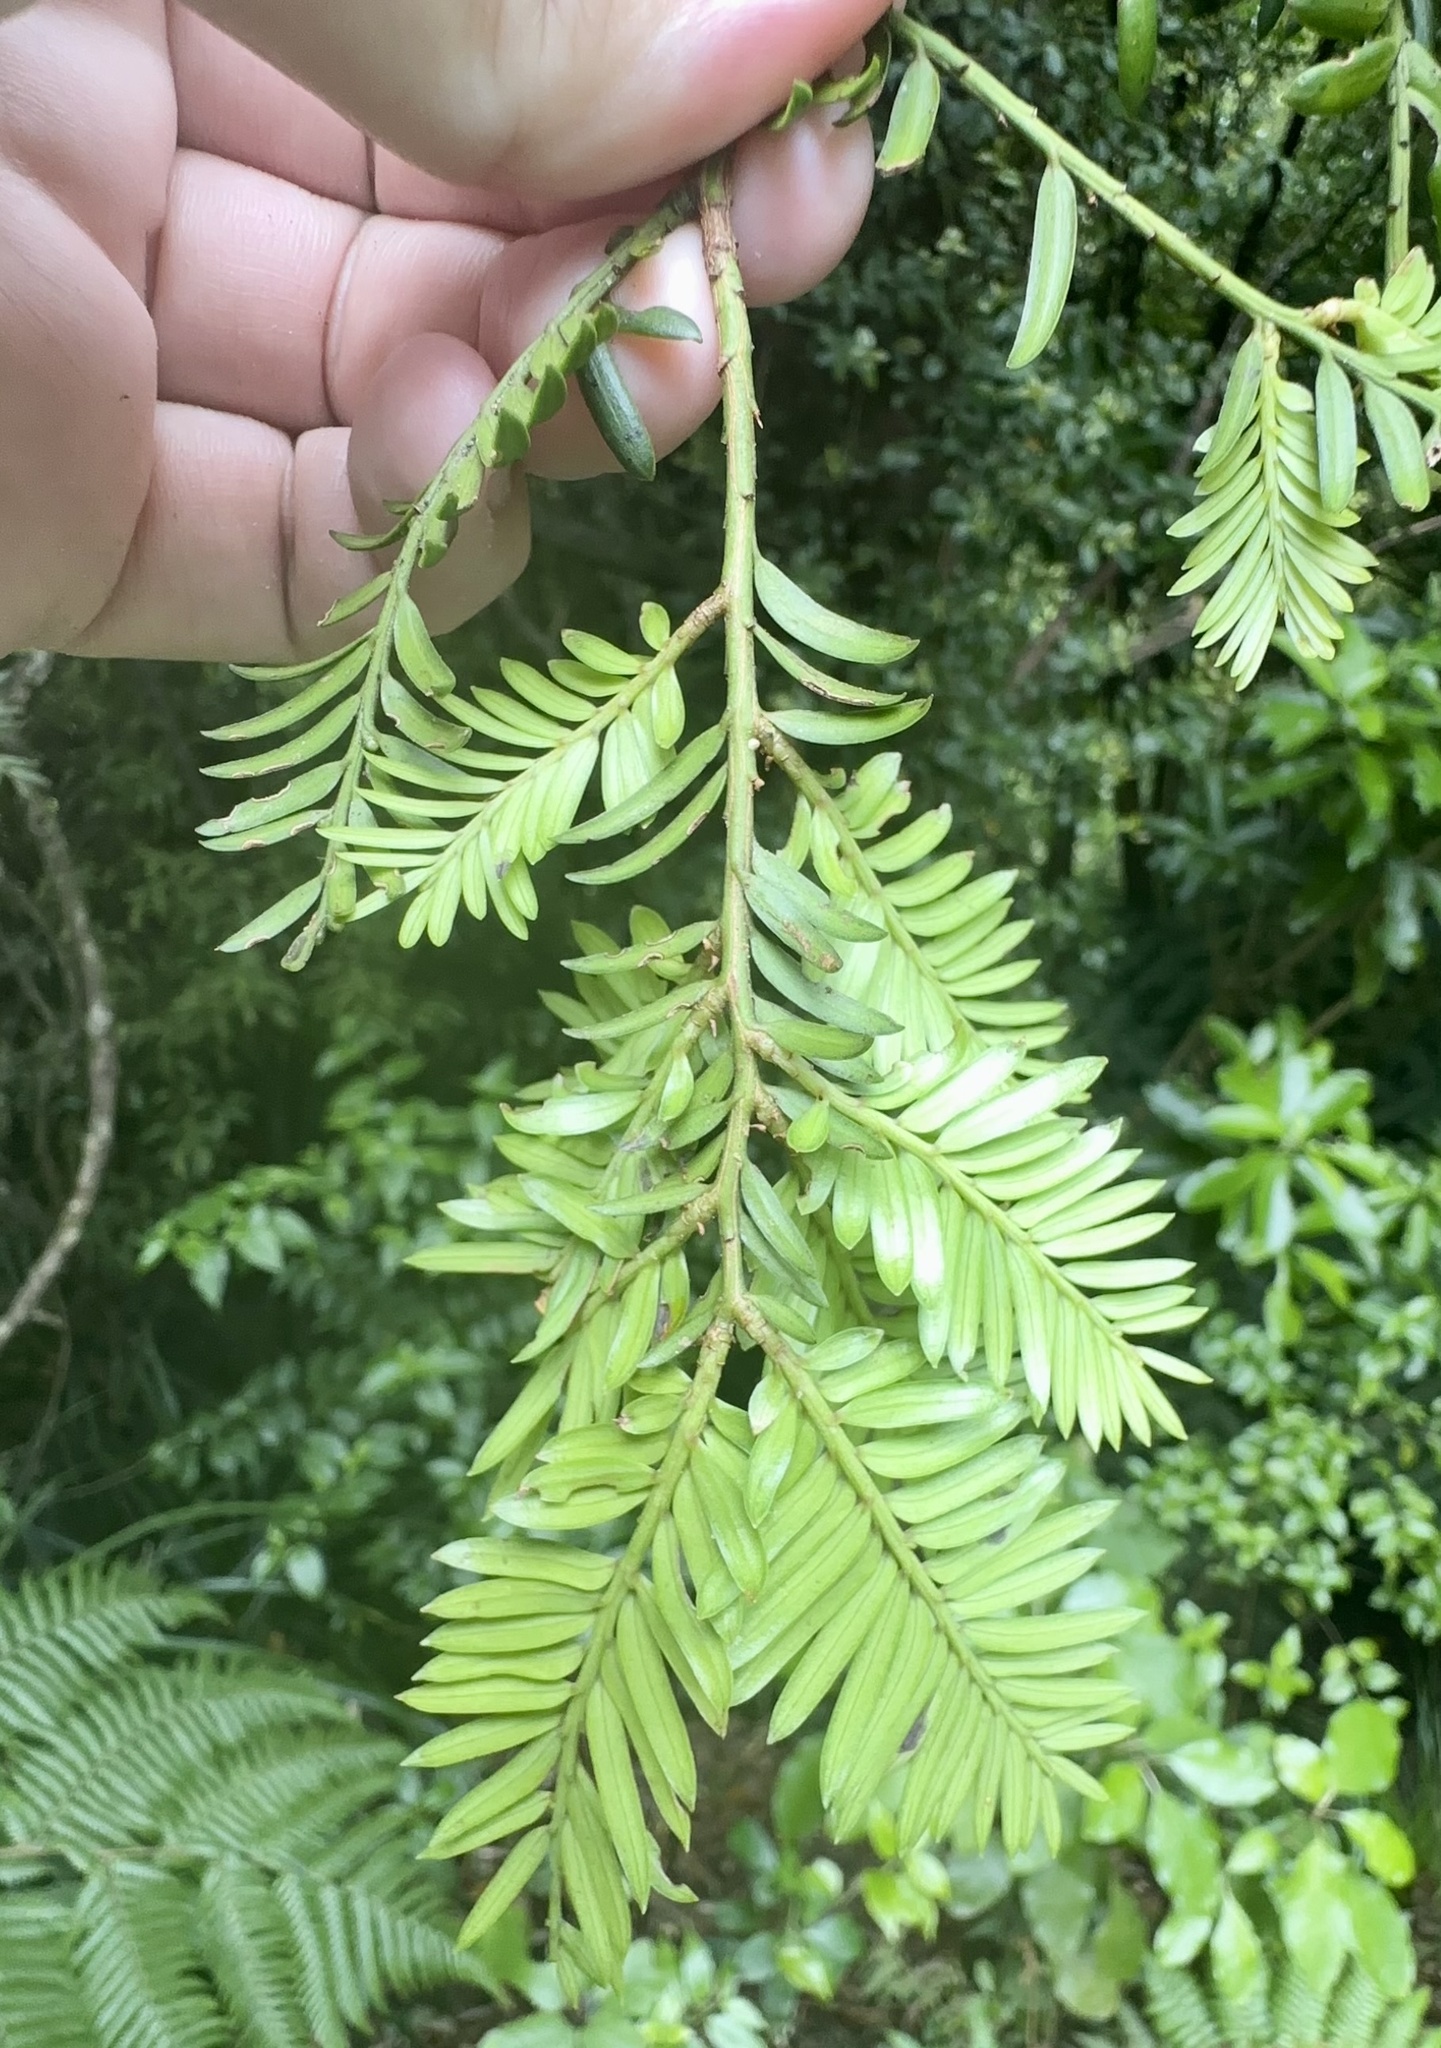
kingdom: Plantae
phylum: Tracheophyta
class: Pinopsida
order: Pinales
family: Podocarpaceae
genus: Prumnopitys
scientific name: Prumnopitys ferruginea
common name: Brown pine
